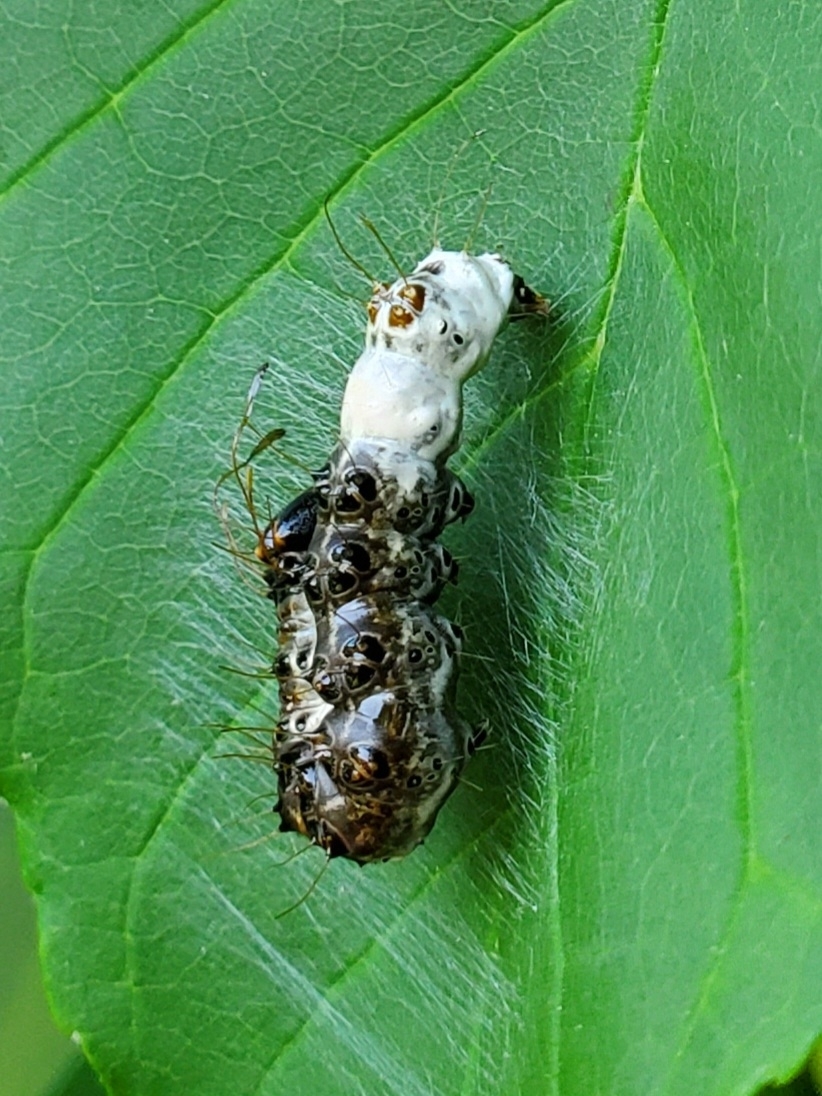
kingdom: Animalia
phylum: Arthropoda
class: Insecta
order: Lepidoptera
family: Noctuidae
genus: Acronicta
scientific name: Acronicta funeralis
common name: Funerary dagger
